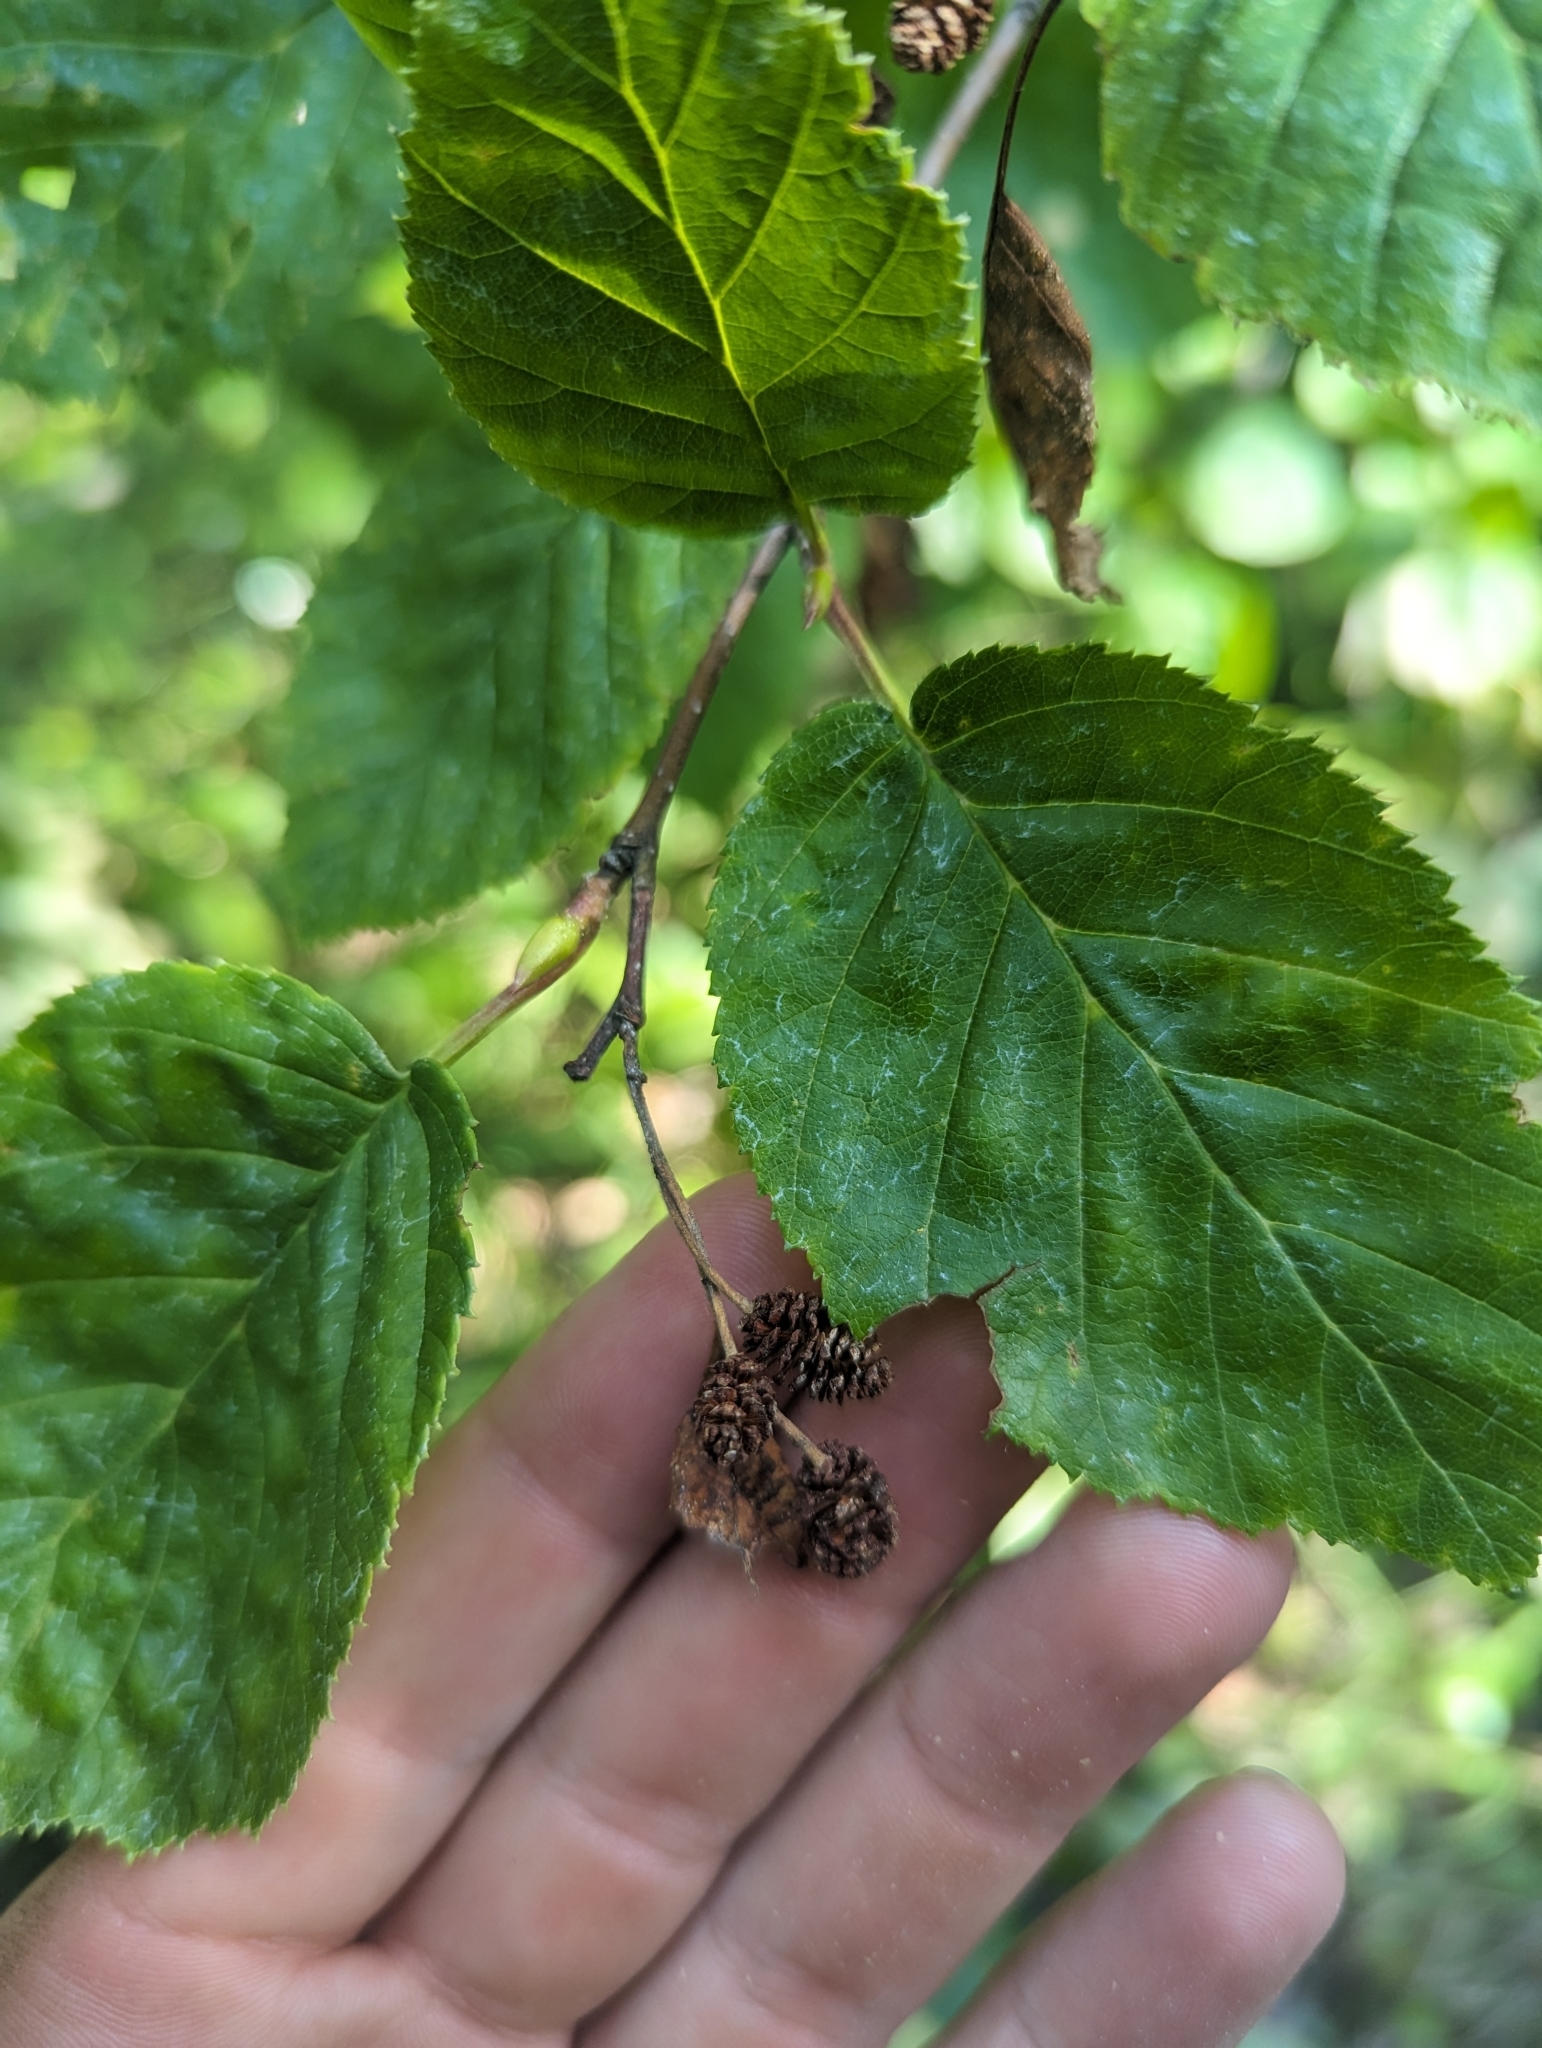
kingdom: Plantae
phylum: Tracheophyta
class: Magnoliopsida
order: Fagales
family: Betulaceae
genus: Alnus
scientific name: Alnus alnobetula
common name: Green alder
